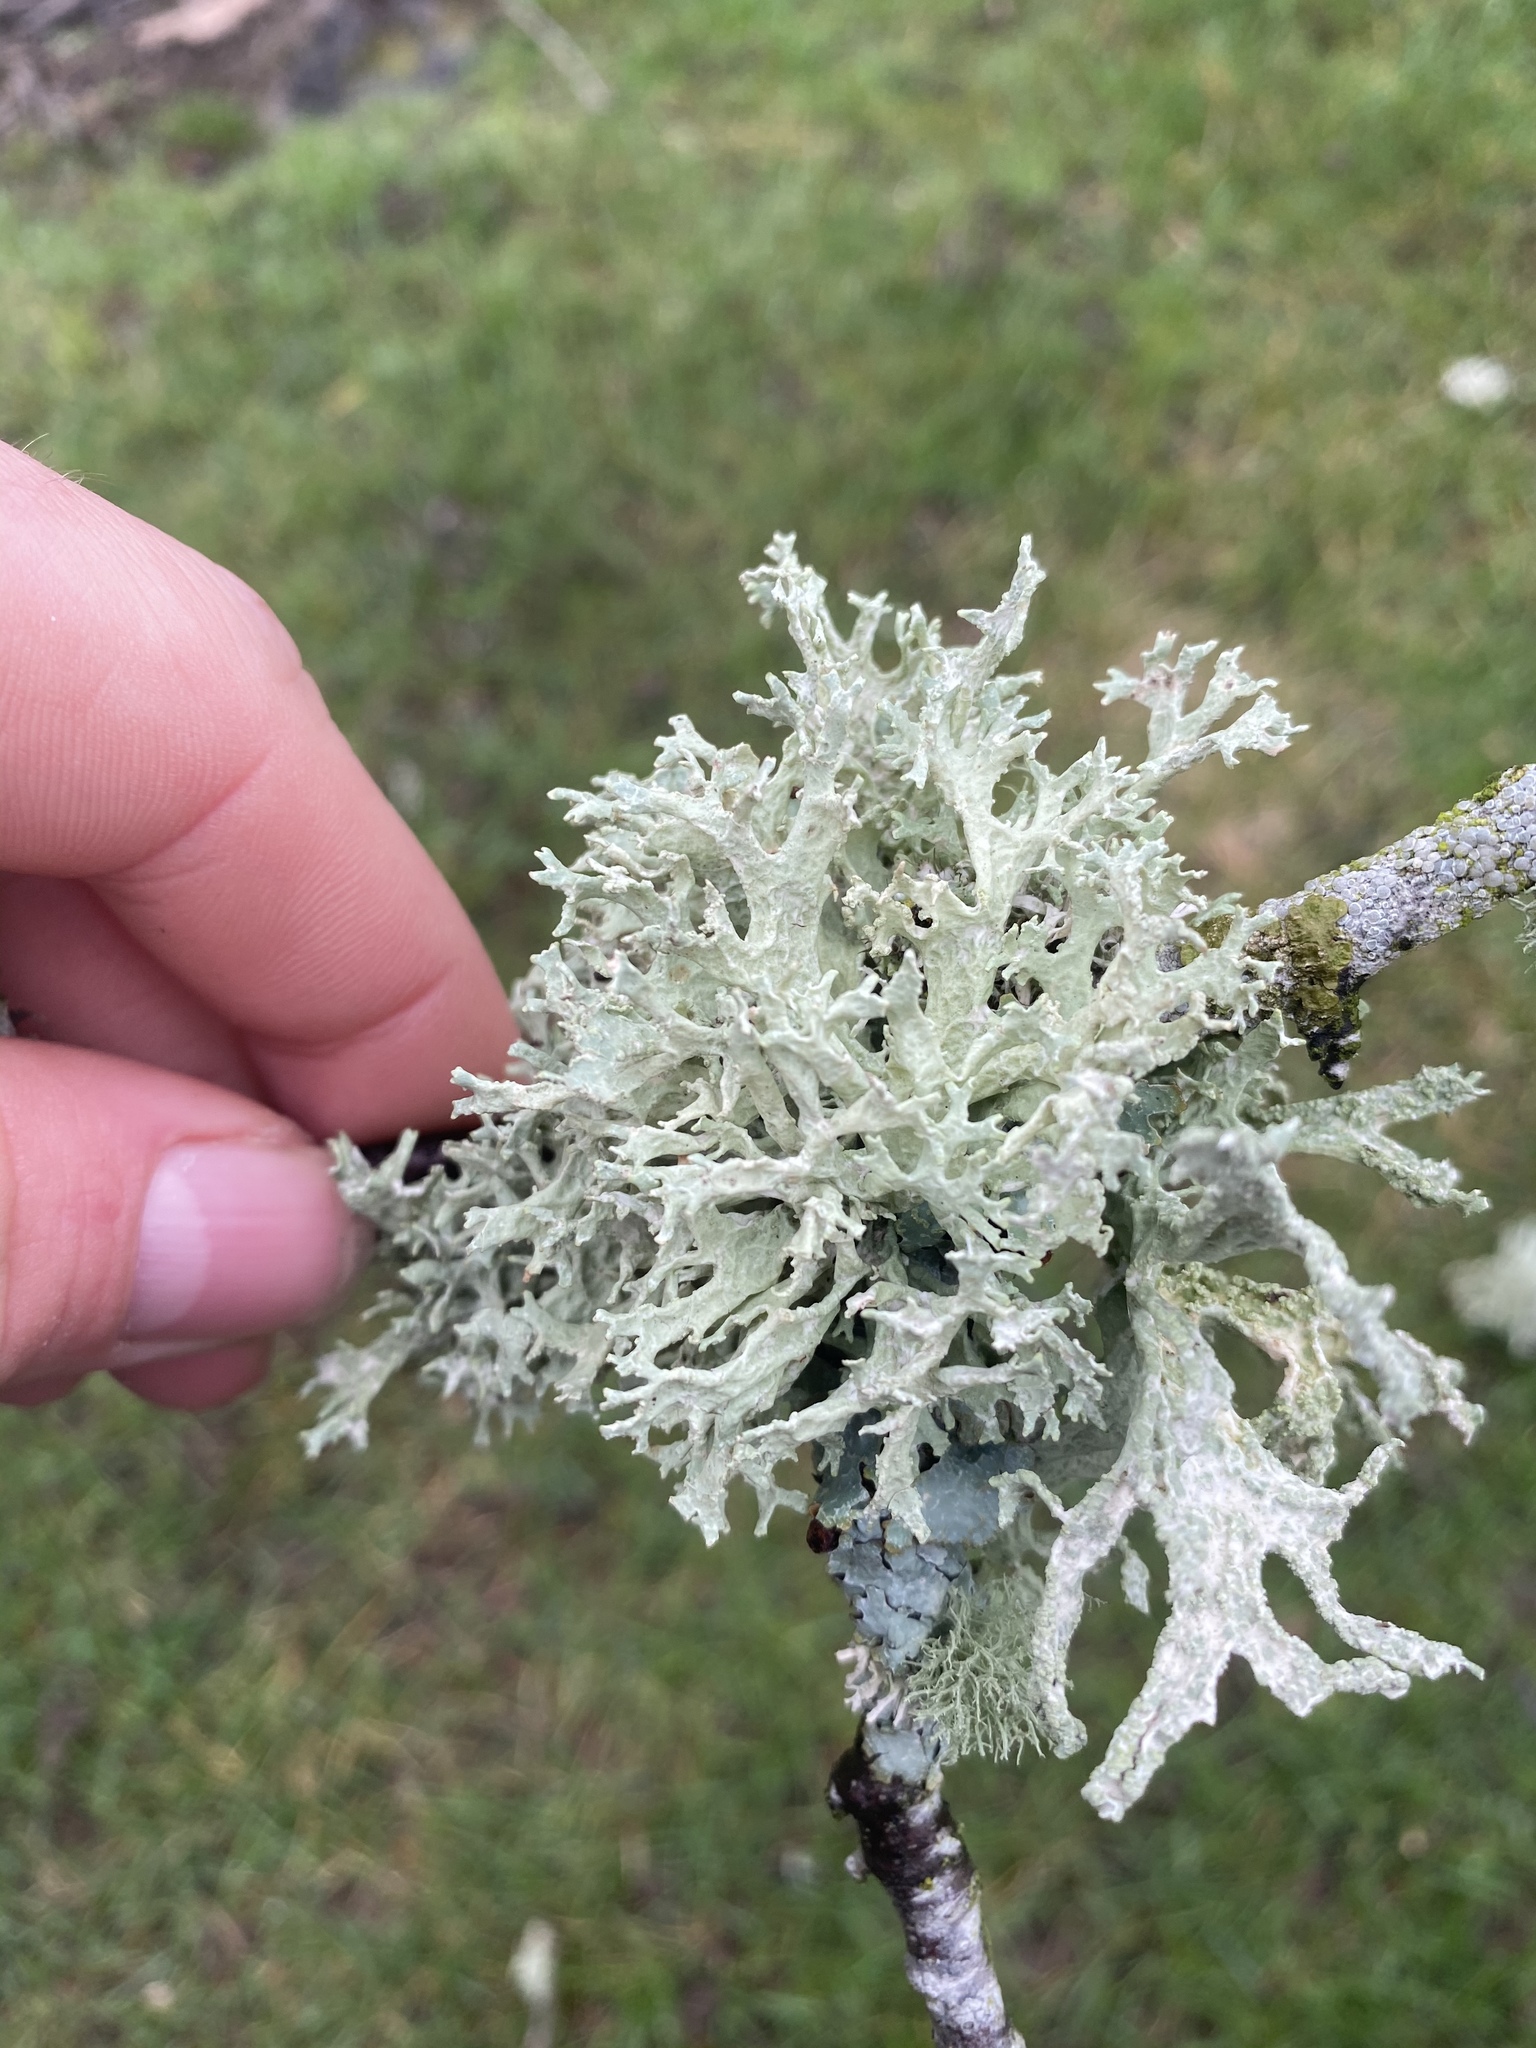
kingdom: Fungi
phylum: Ascomycota
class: Lecanoromycetes
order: Lecanorales
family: Parmeliaceae
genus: Evernia
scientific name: Evernia prunastri
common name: Oak moss
